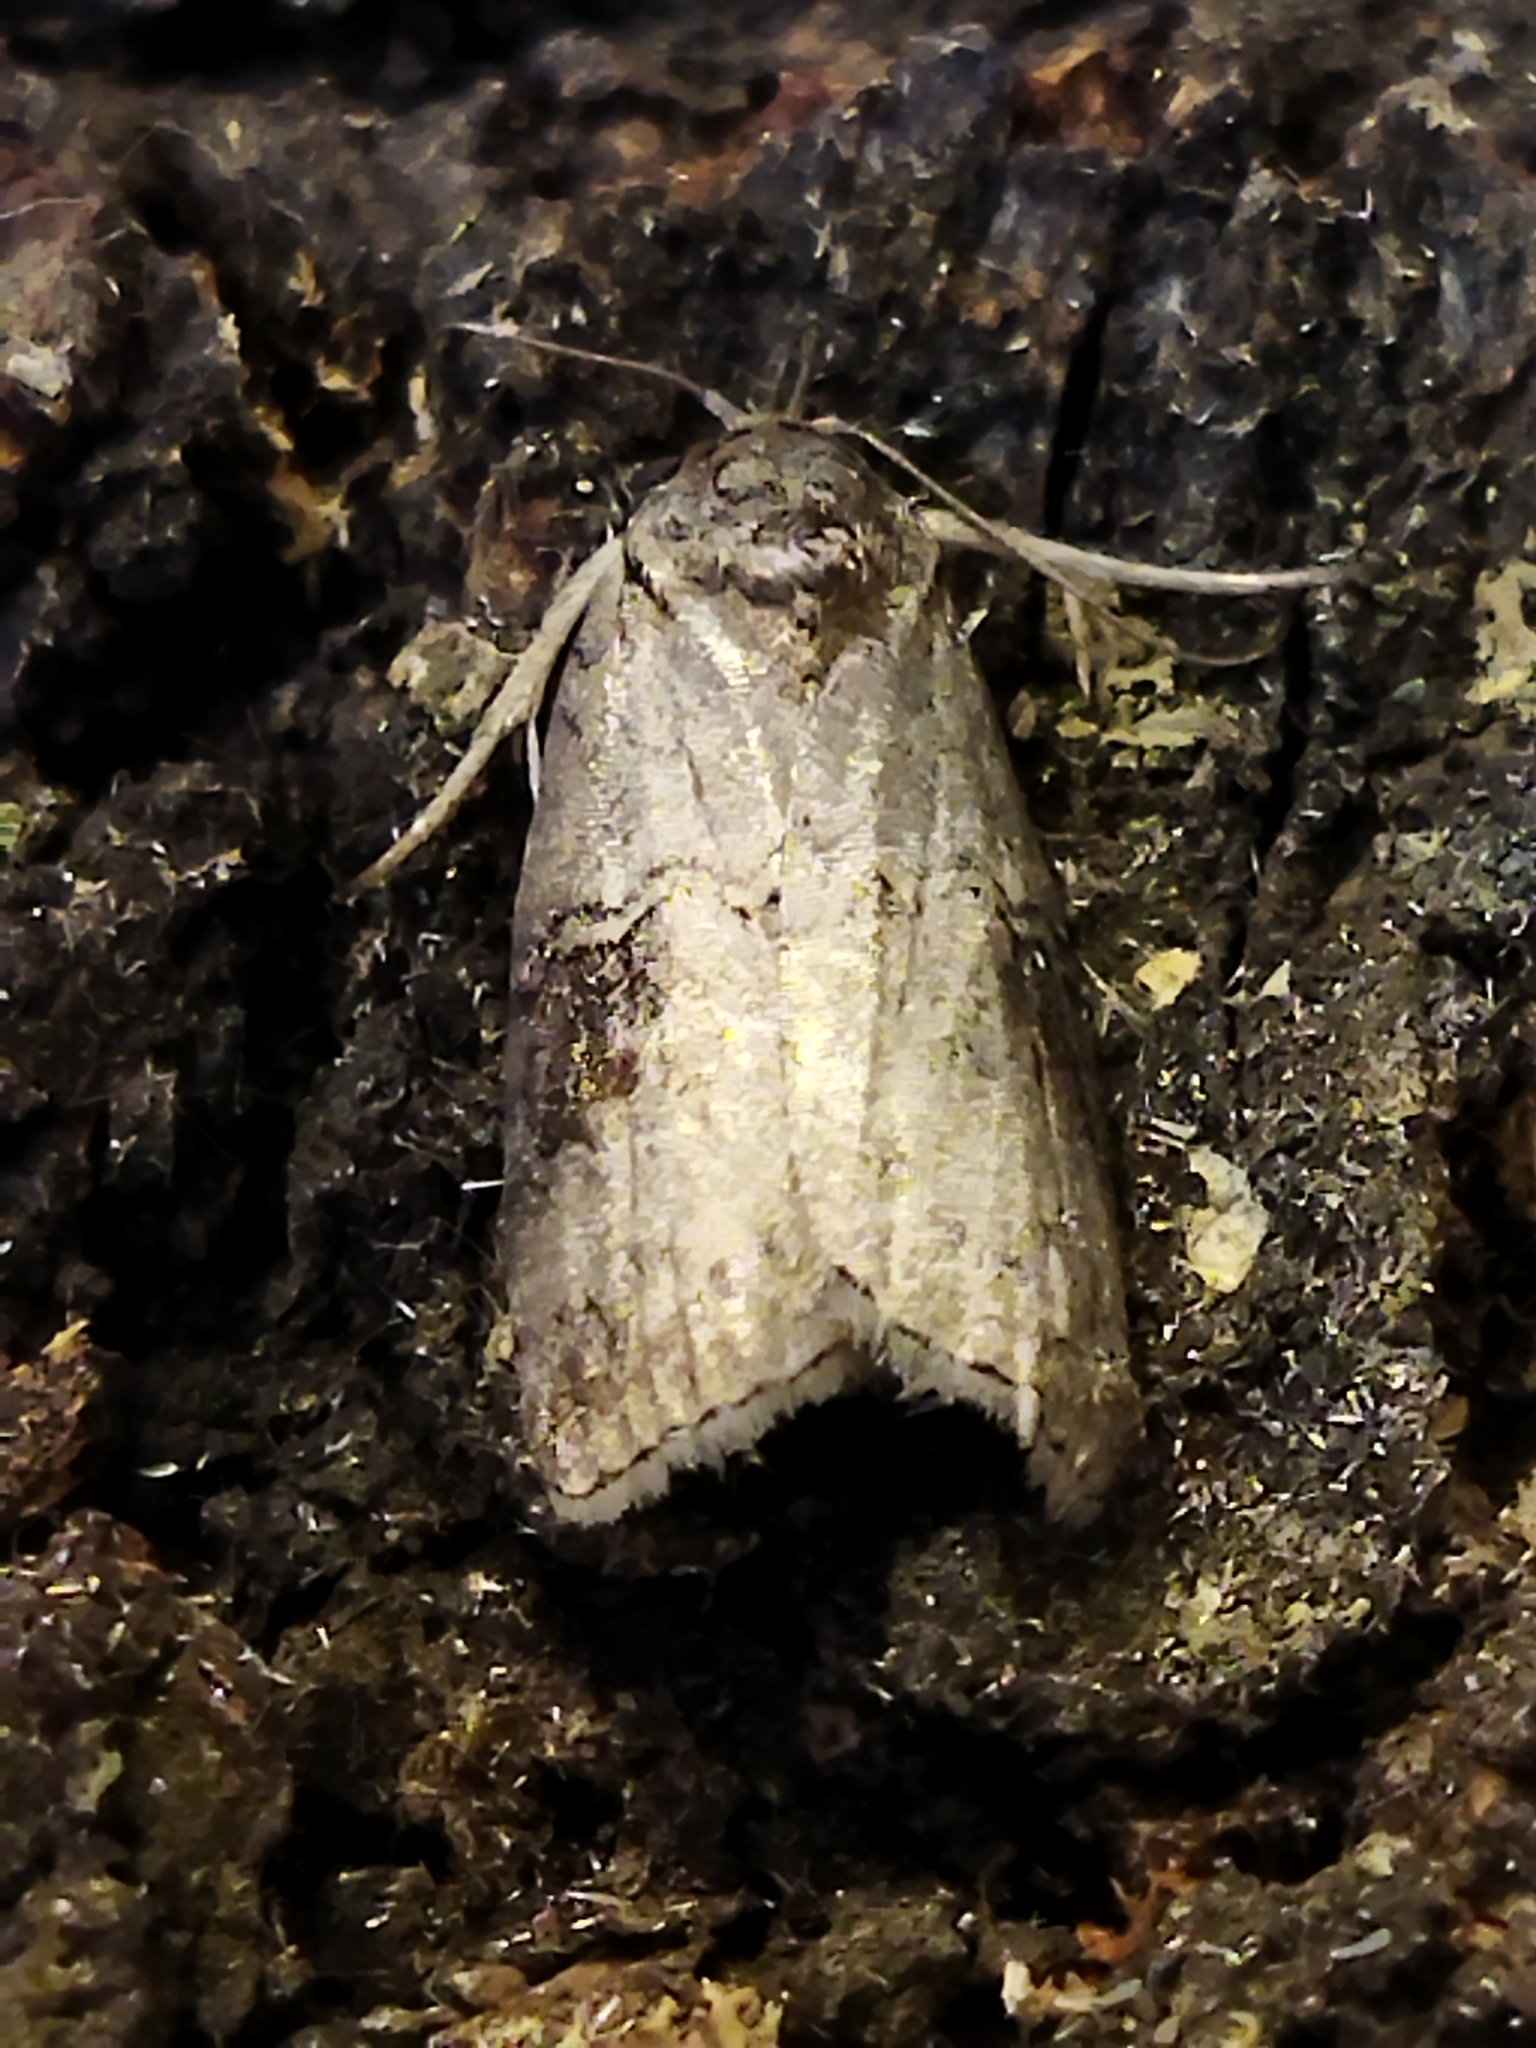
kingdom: Animalia
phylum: Arthropoda
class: Insecta
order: Lepidoptera
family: Nolidae
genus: Nycteola
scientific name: Nycteola asiatica
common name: Eastern nycteoline
